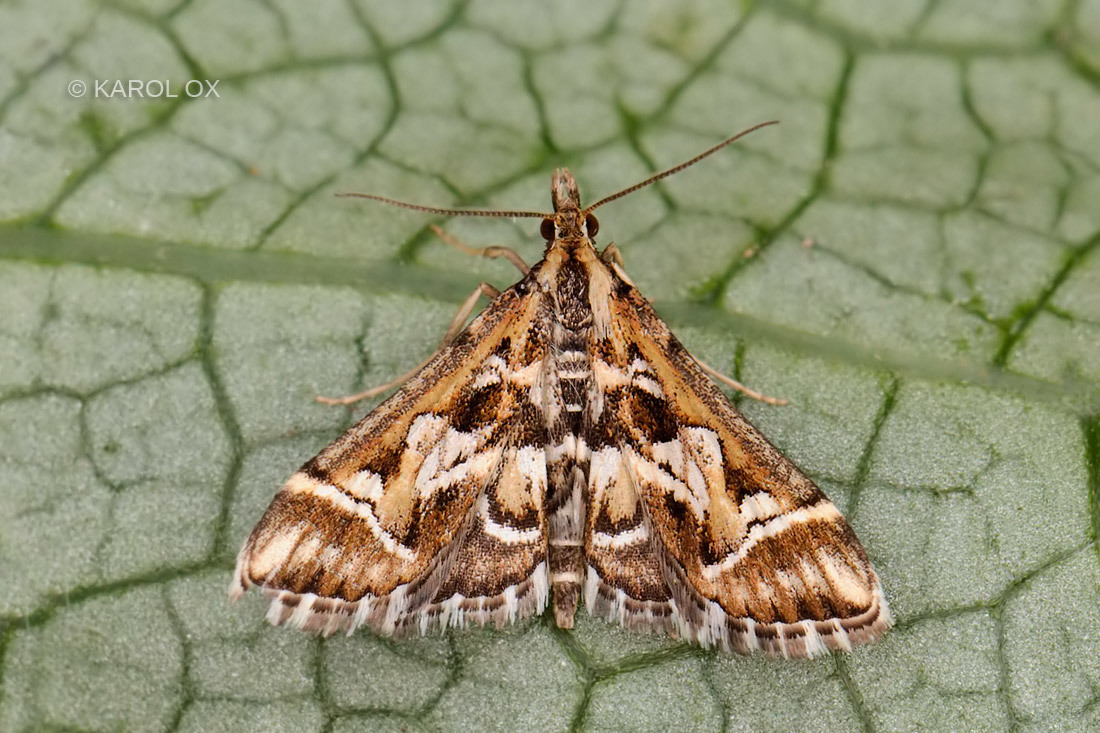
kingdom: Animalia
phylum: Arthropoda
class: Insecta
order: Lepidoptera
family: Crambidae
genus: Diasemia
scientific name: Diasemia reticularis
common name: Lettered china-mark
